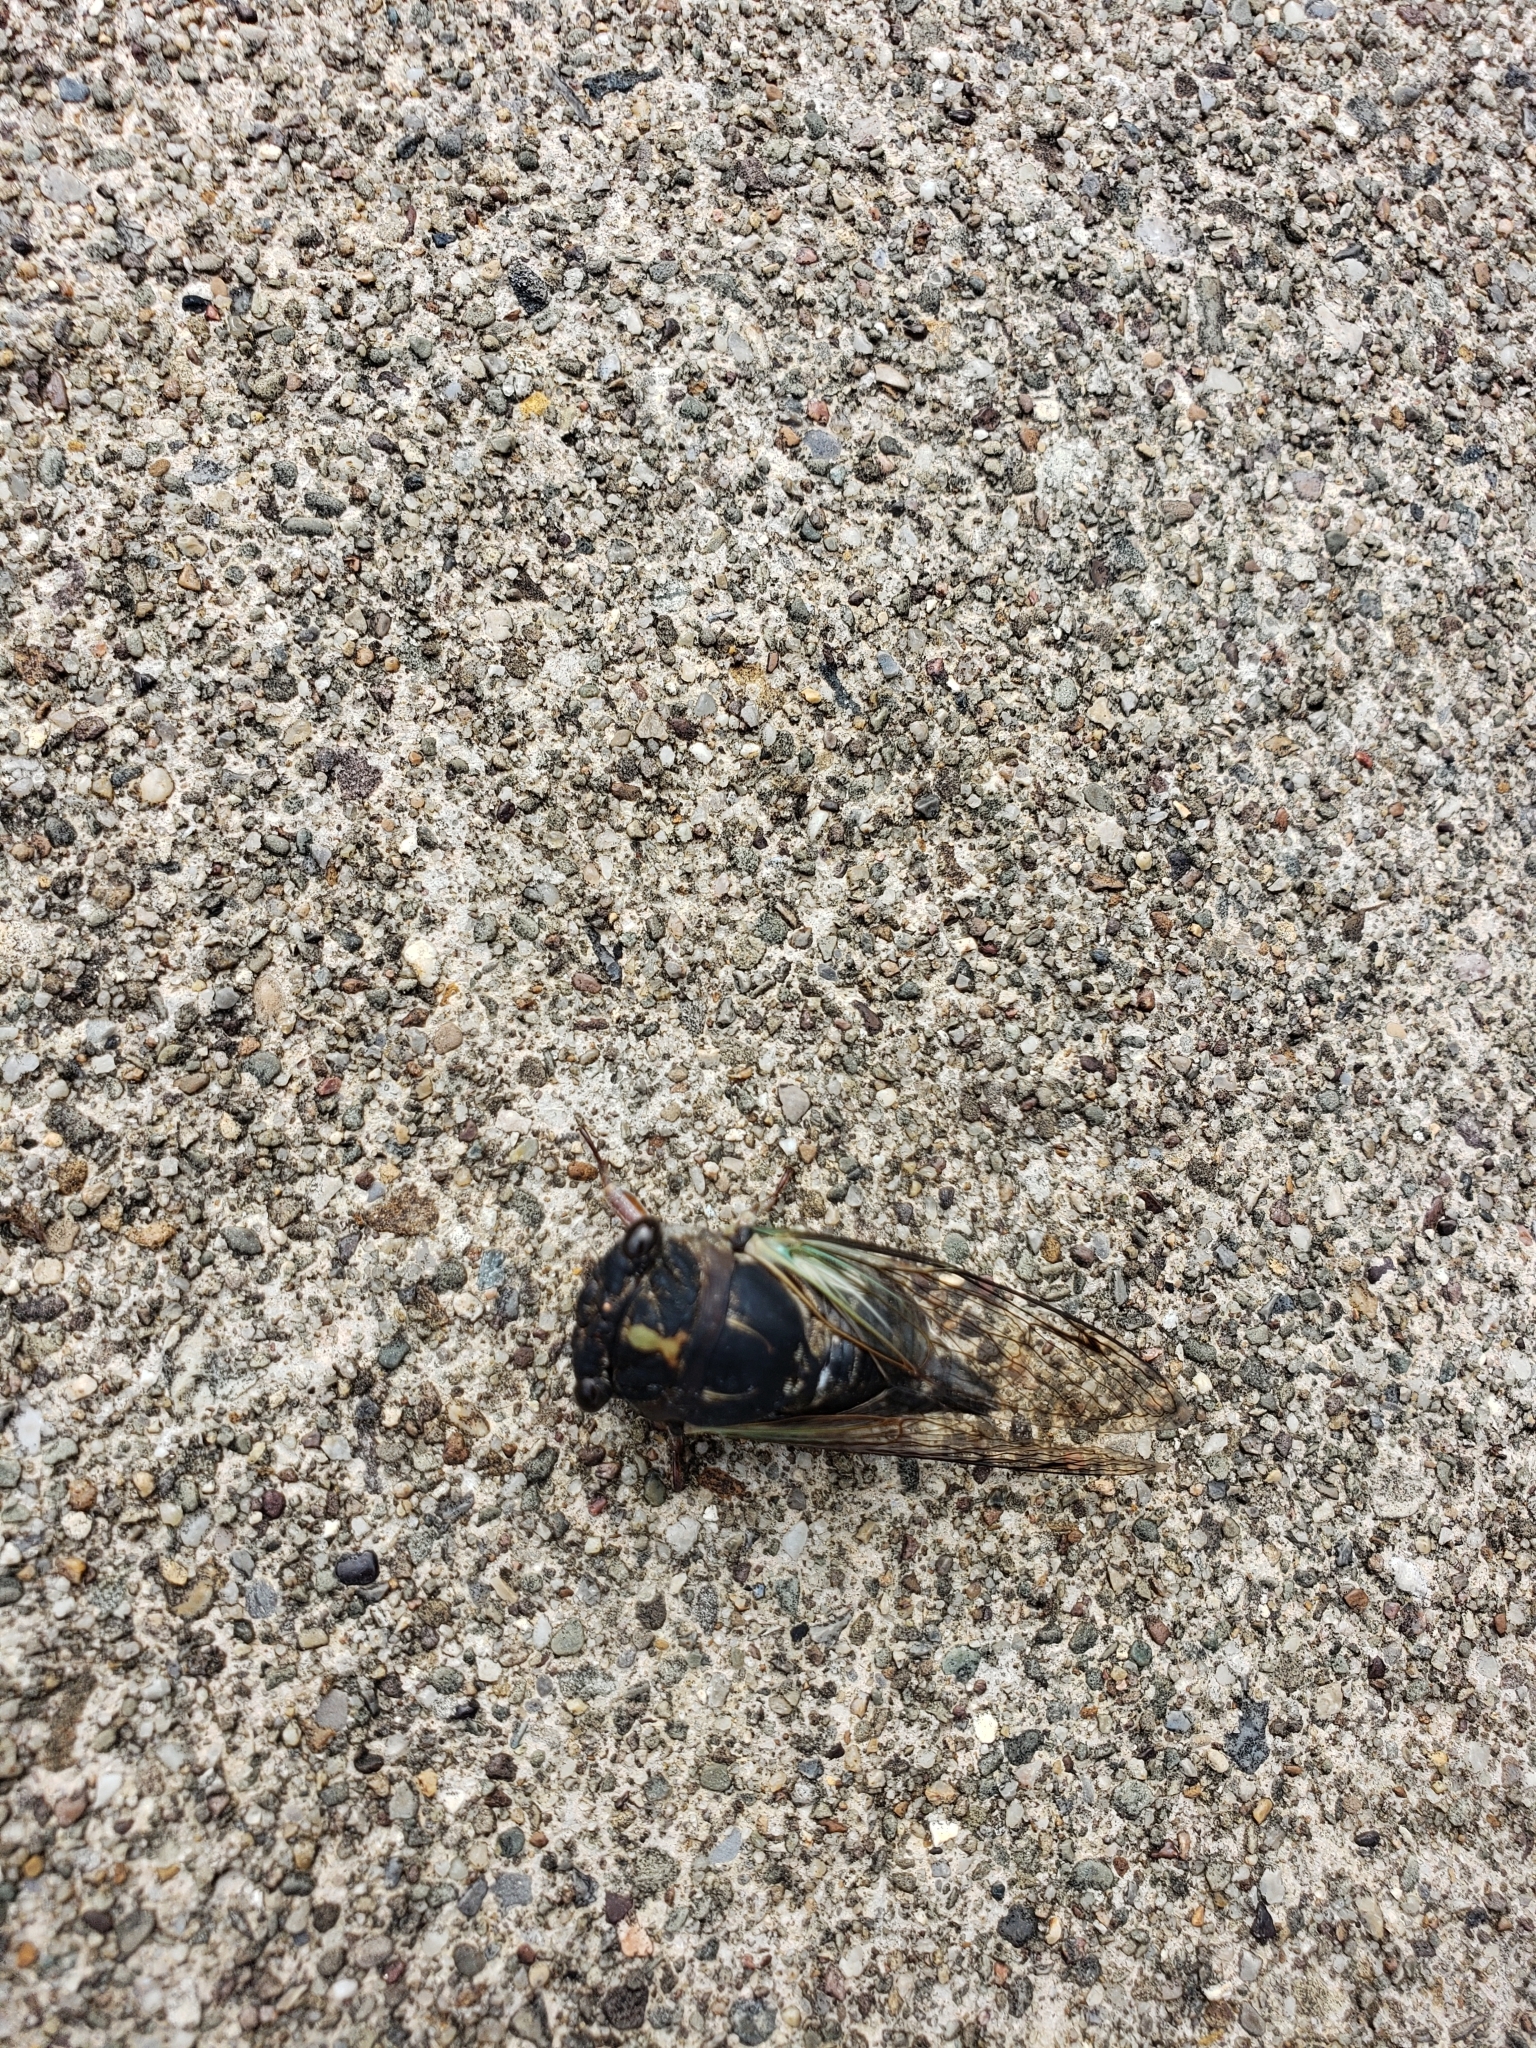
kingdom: Animalia
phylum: Arthropoda
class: Insecta
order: Hemiptera
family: Cicadidae
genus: Neotibicen
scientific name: Neotibicen lyricen
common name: Lyric cicada
